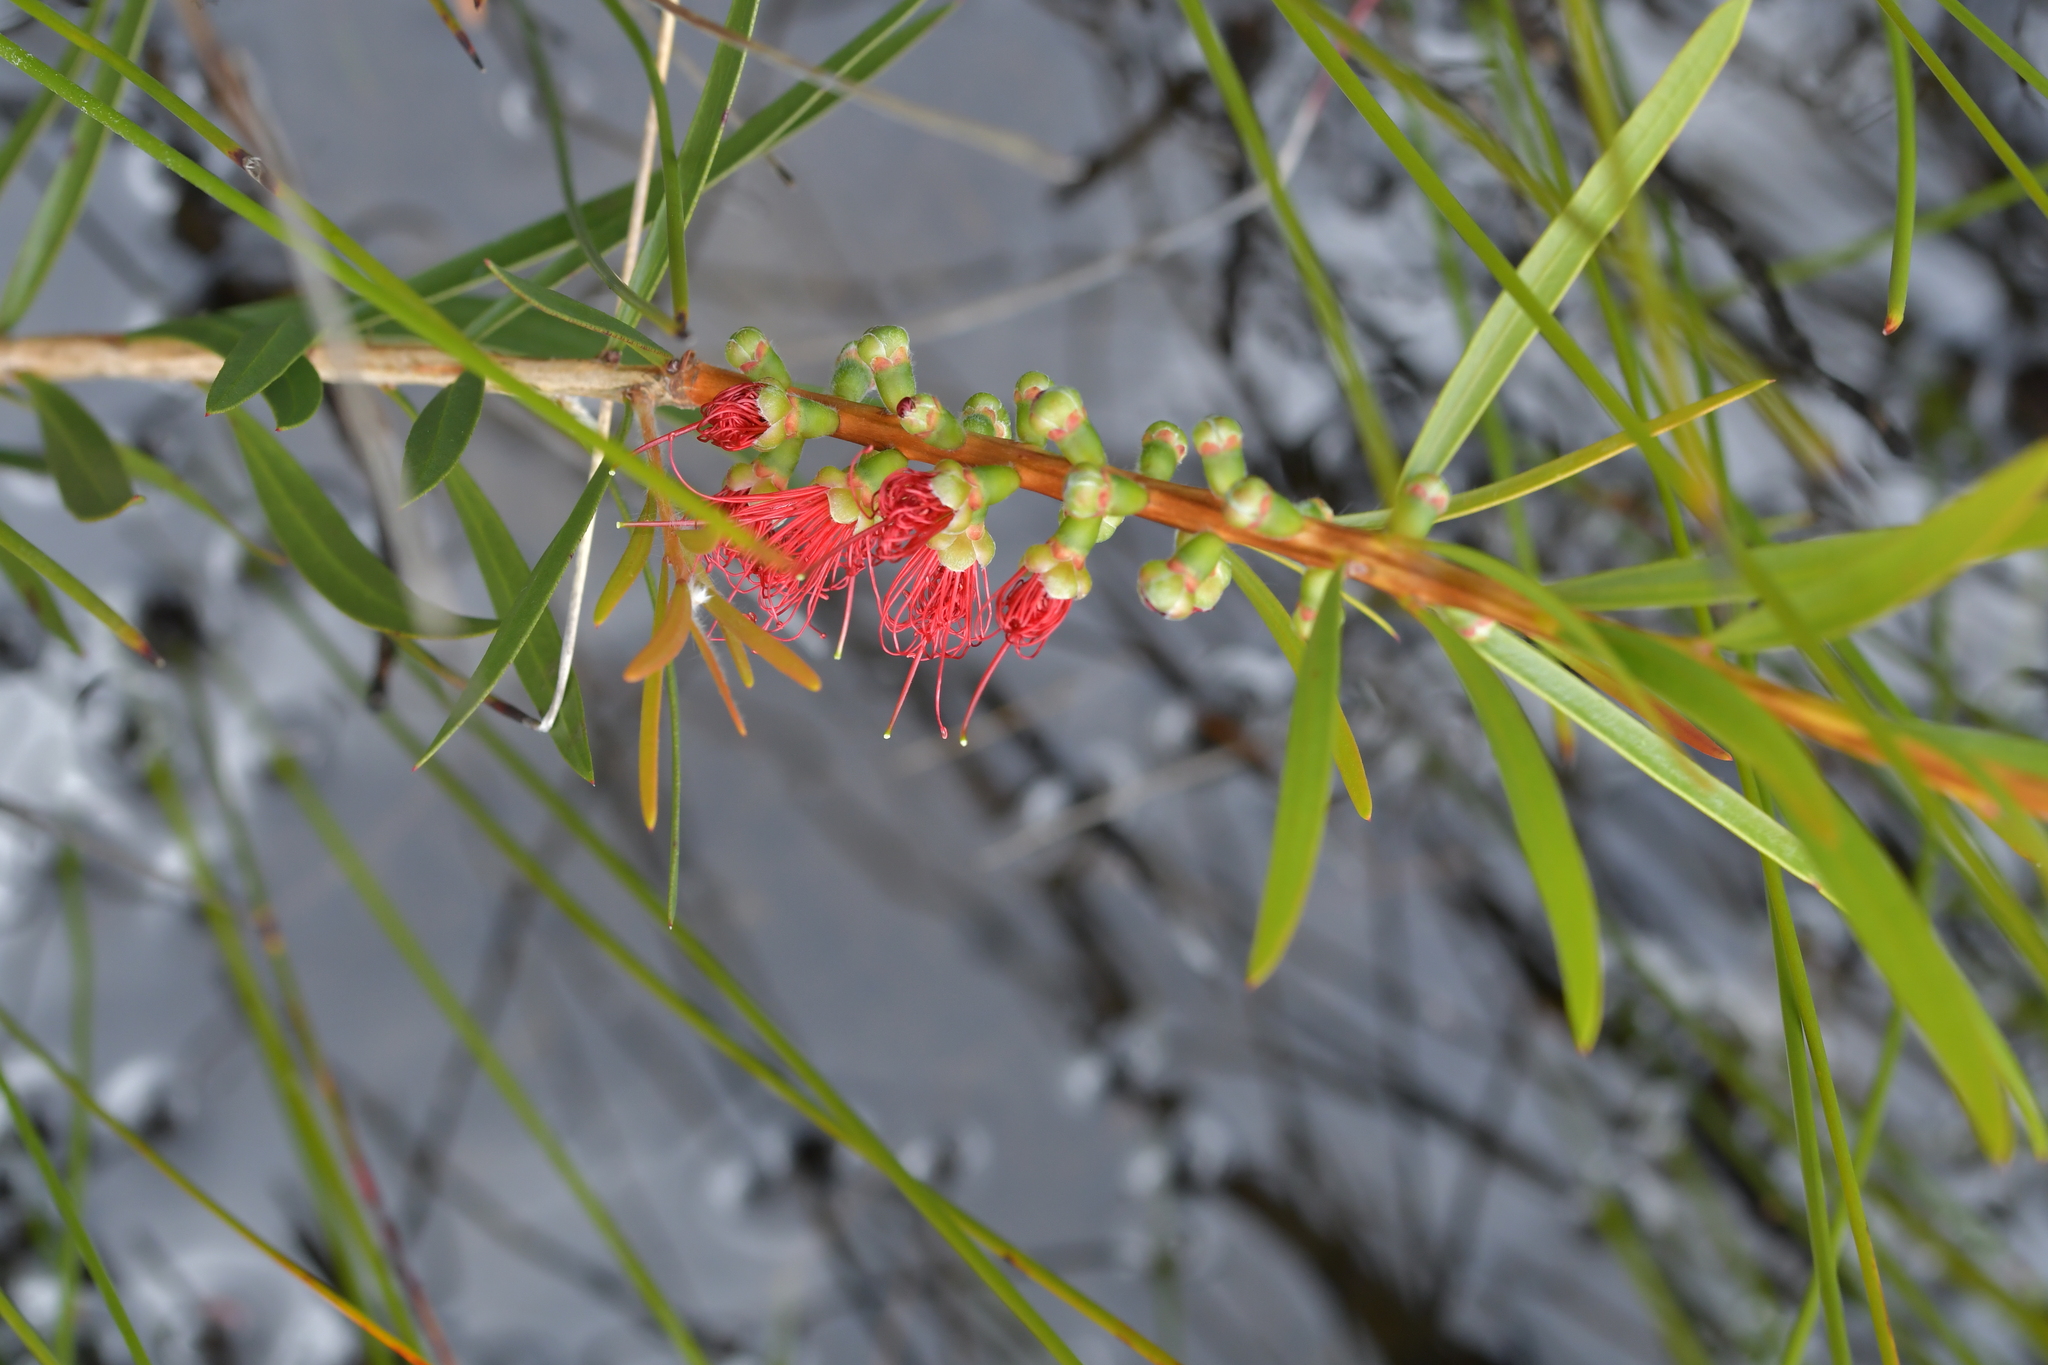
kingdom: Plantae
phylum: Tracheophyta
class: Magnoliopsida
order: Myrtales
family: Myrtaceae
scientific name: Myrtaceae
